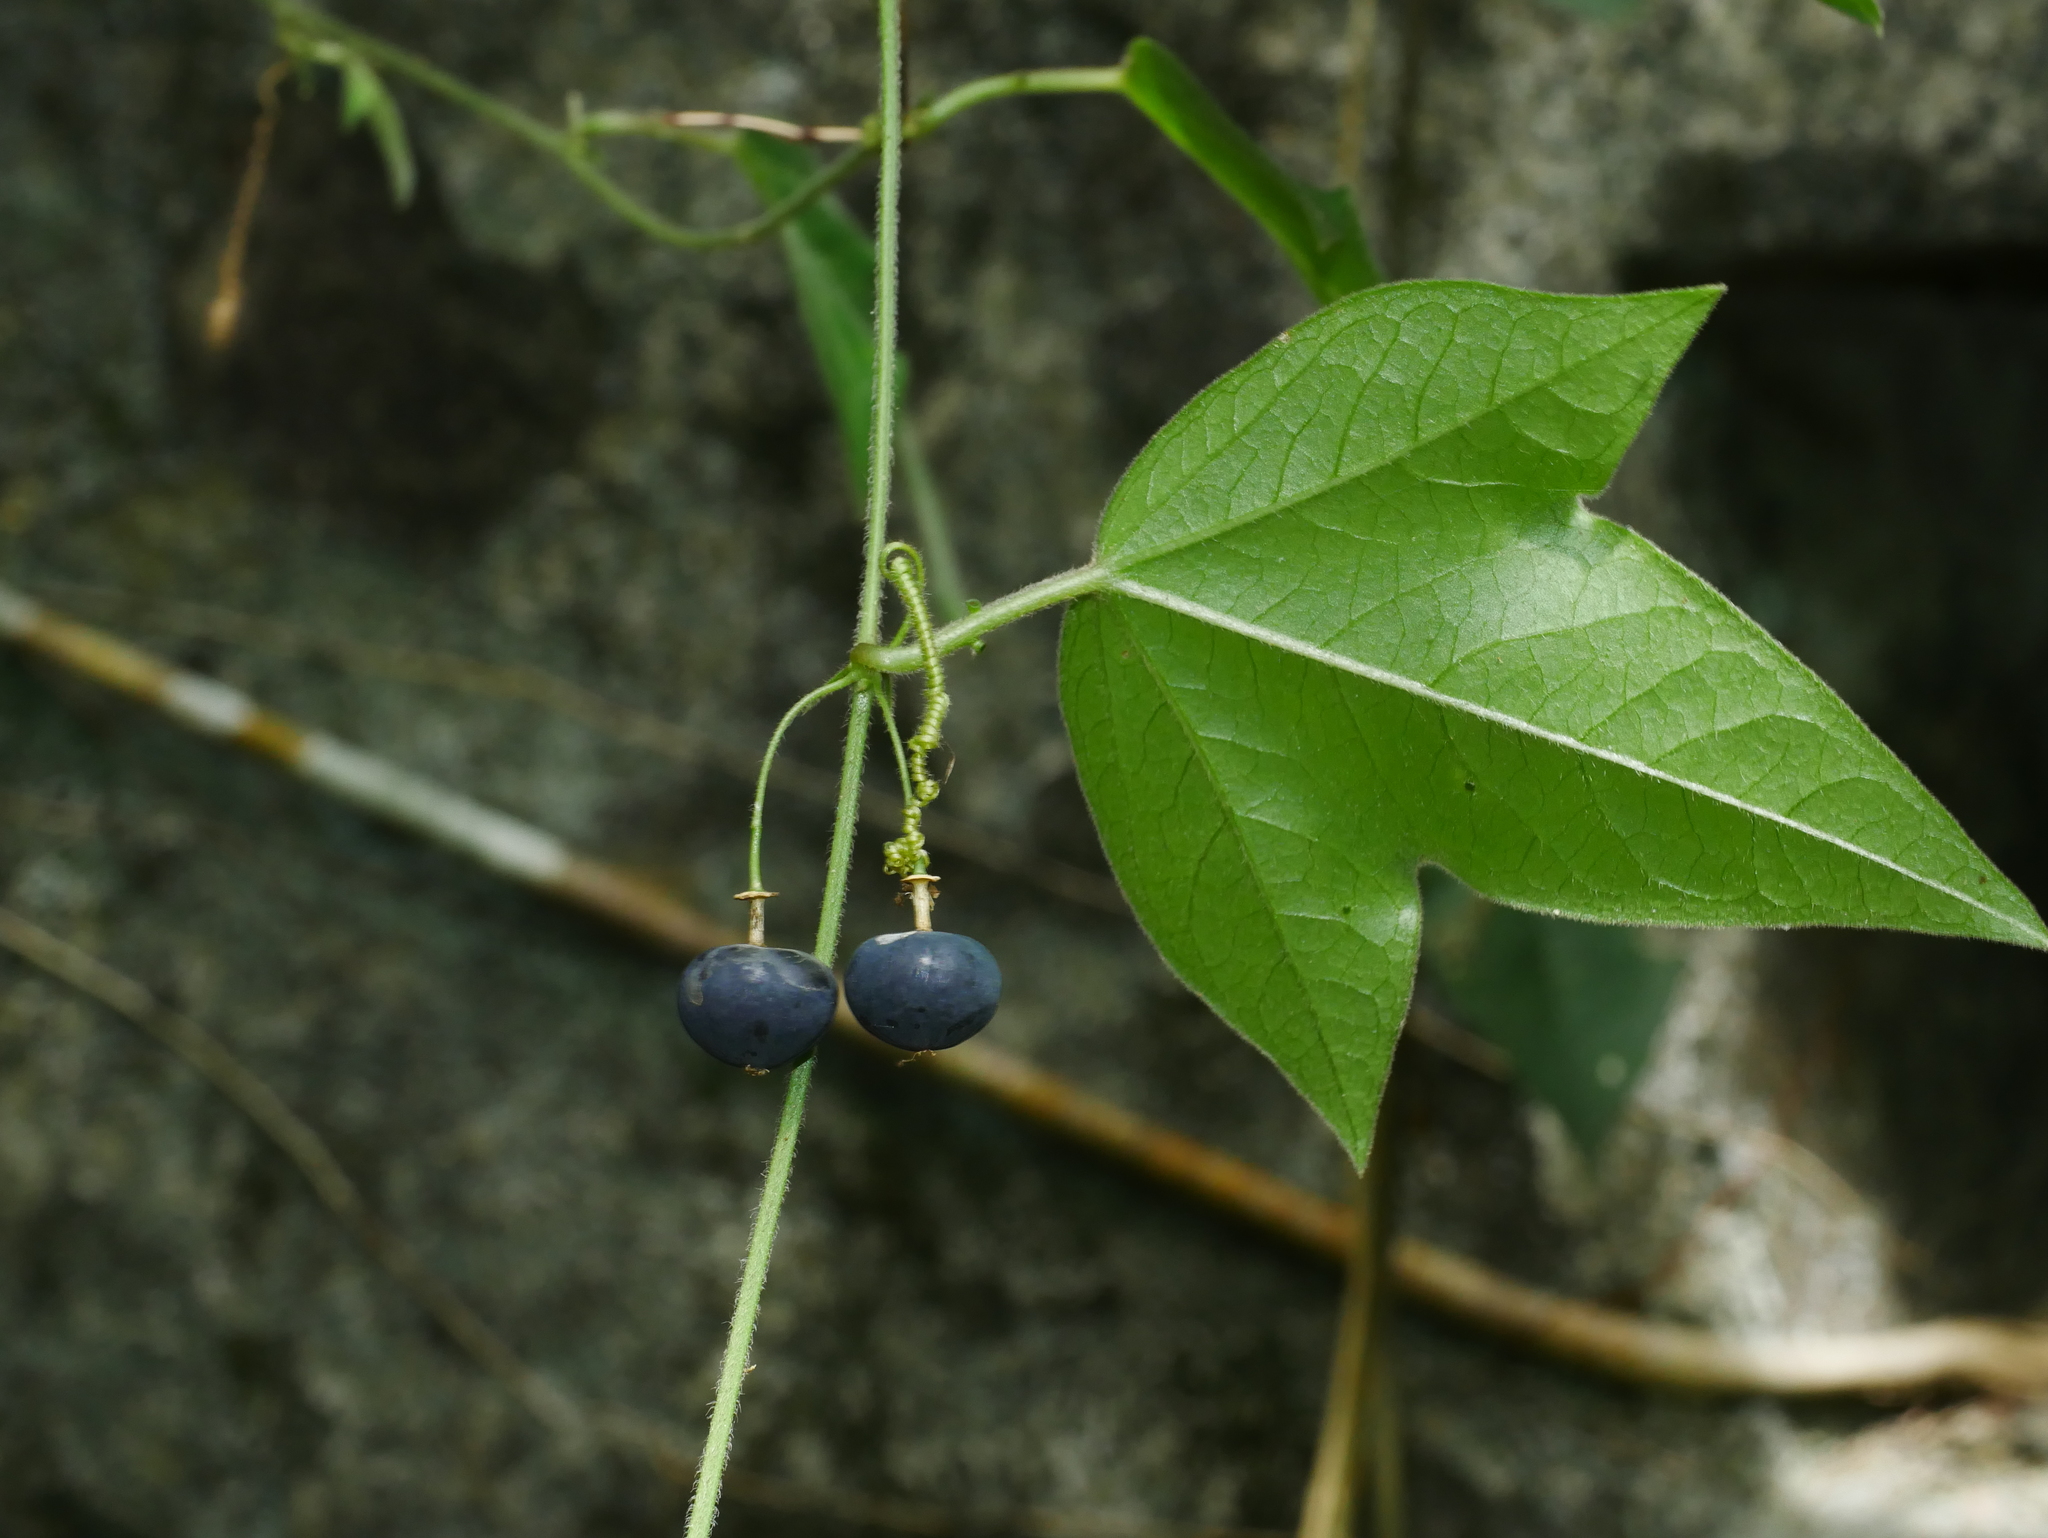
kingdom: Plantae
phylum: Tracheophyta
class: Magnoliopsida
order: Malpighiales
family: Passifloraceae
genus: Passiflora
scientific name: Passiflora suberosa
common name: Wild passionfruit
